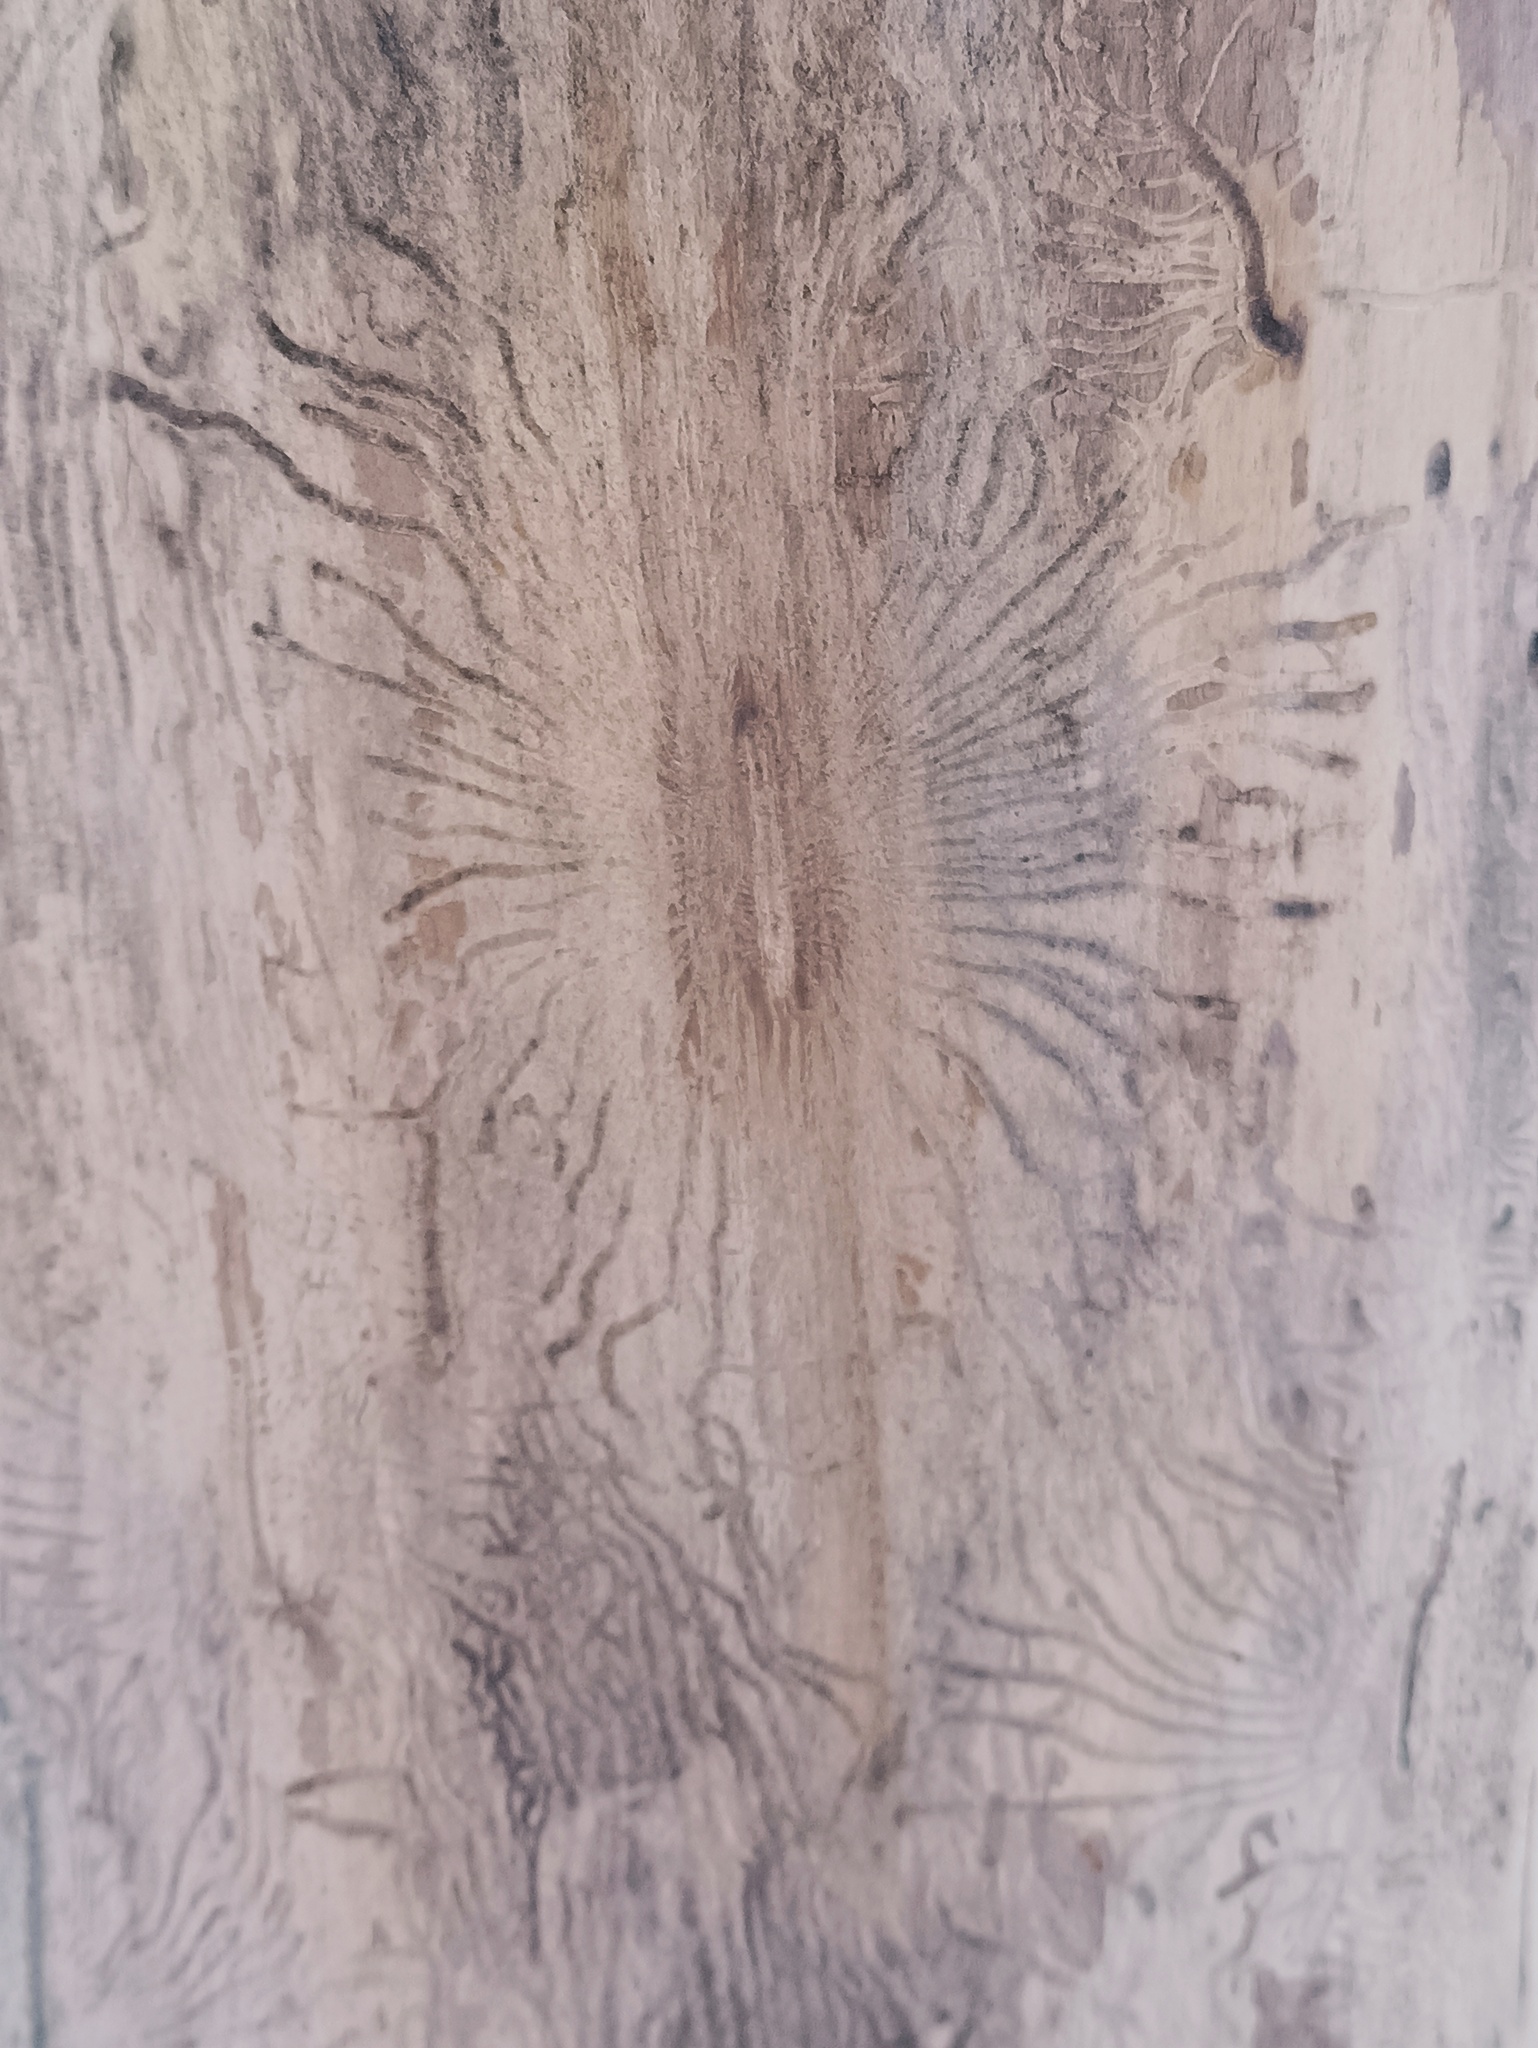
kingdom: Animalia
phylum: Arthropoda
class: Insecta
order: Coleoptera
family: Curculionidae
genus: Scolytus
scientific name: Scolytus multistriatus
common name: European elm bark beetle
